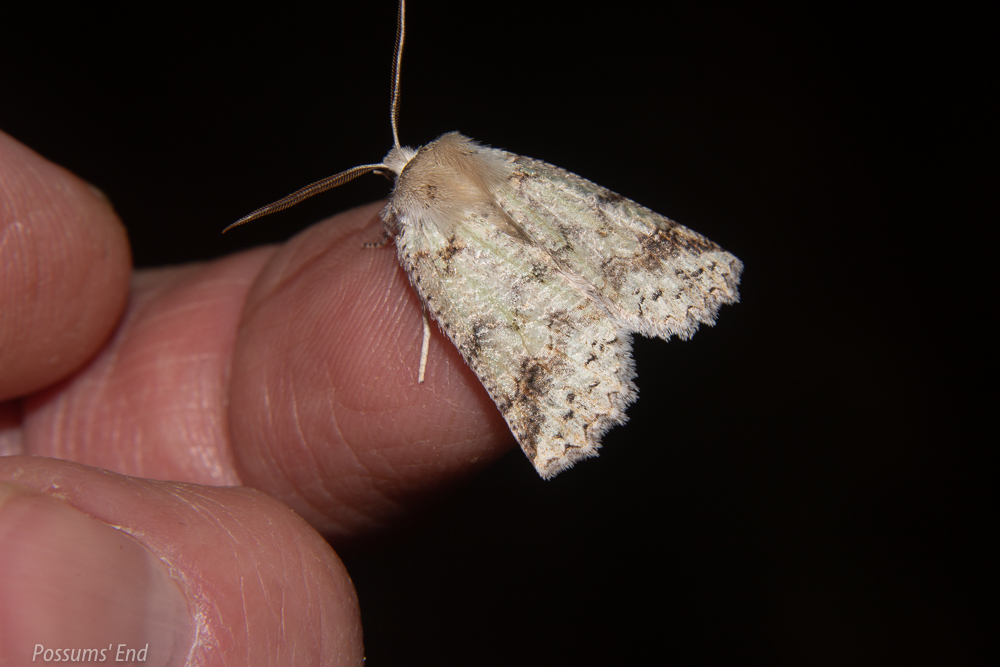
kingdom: Animalia
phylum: Arthropoda
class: Insecta
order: Lepidoptera
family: Geometridae
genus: Declana
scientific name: Declana floccosa
